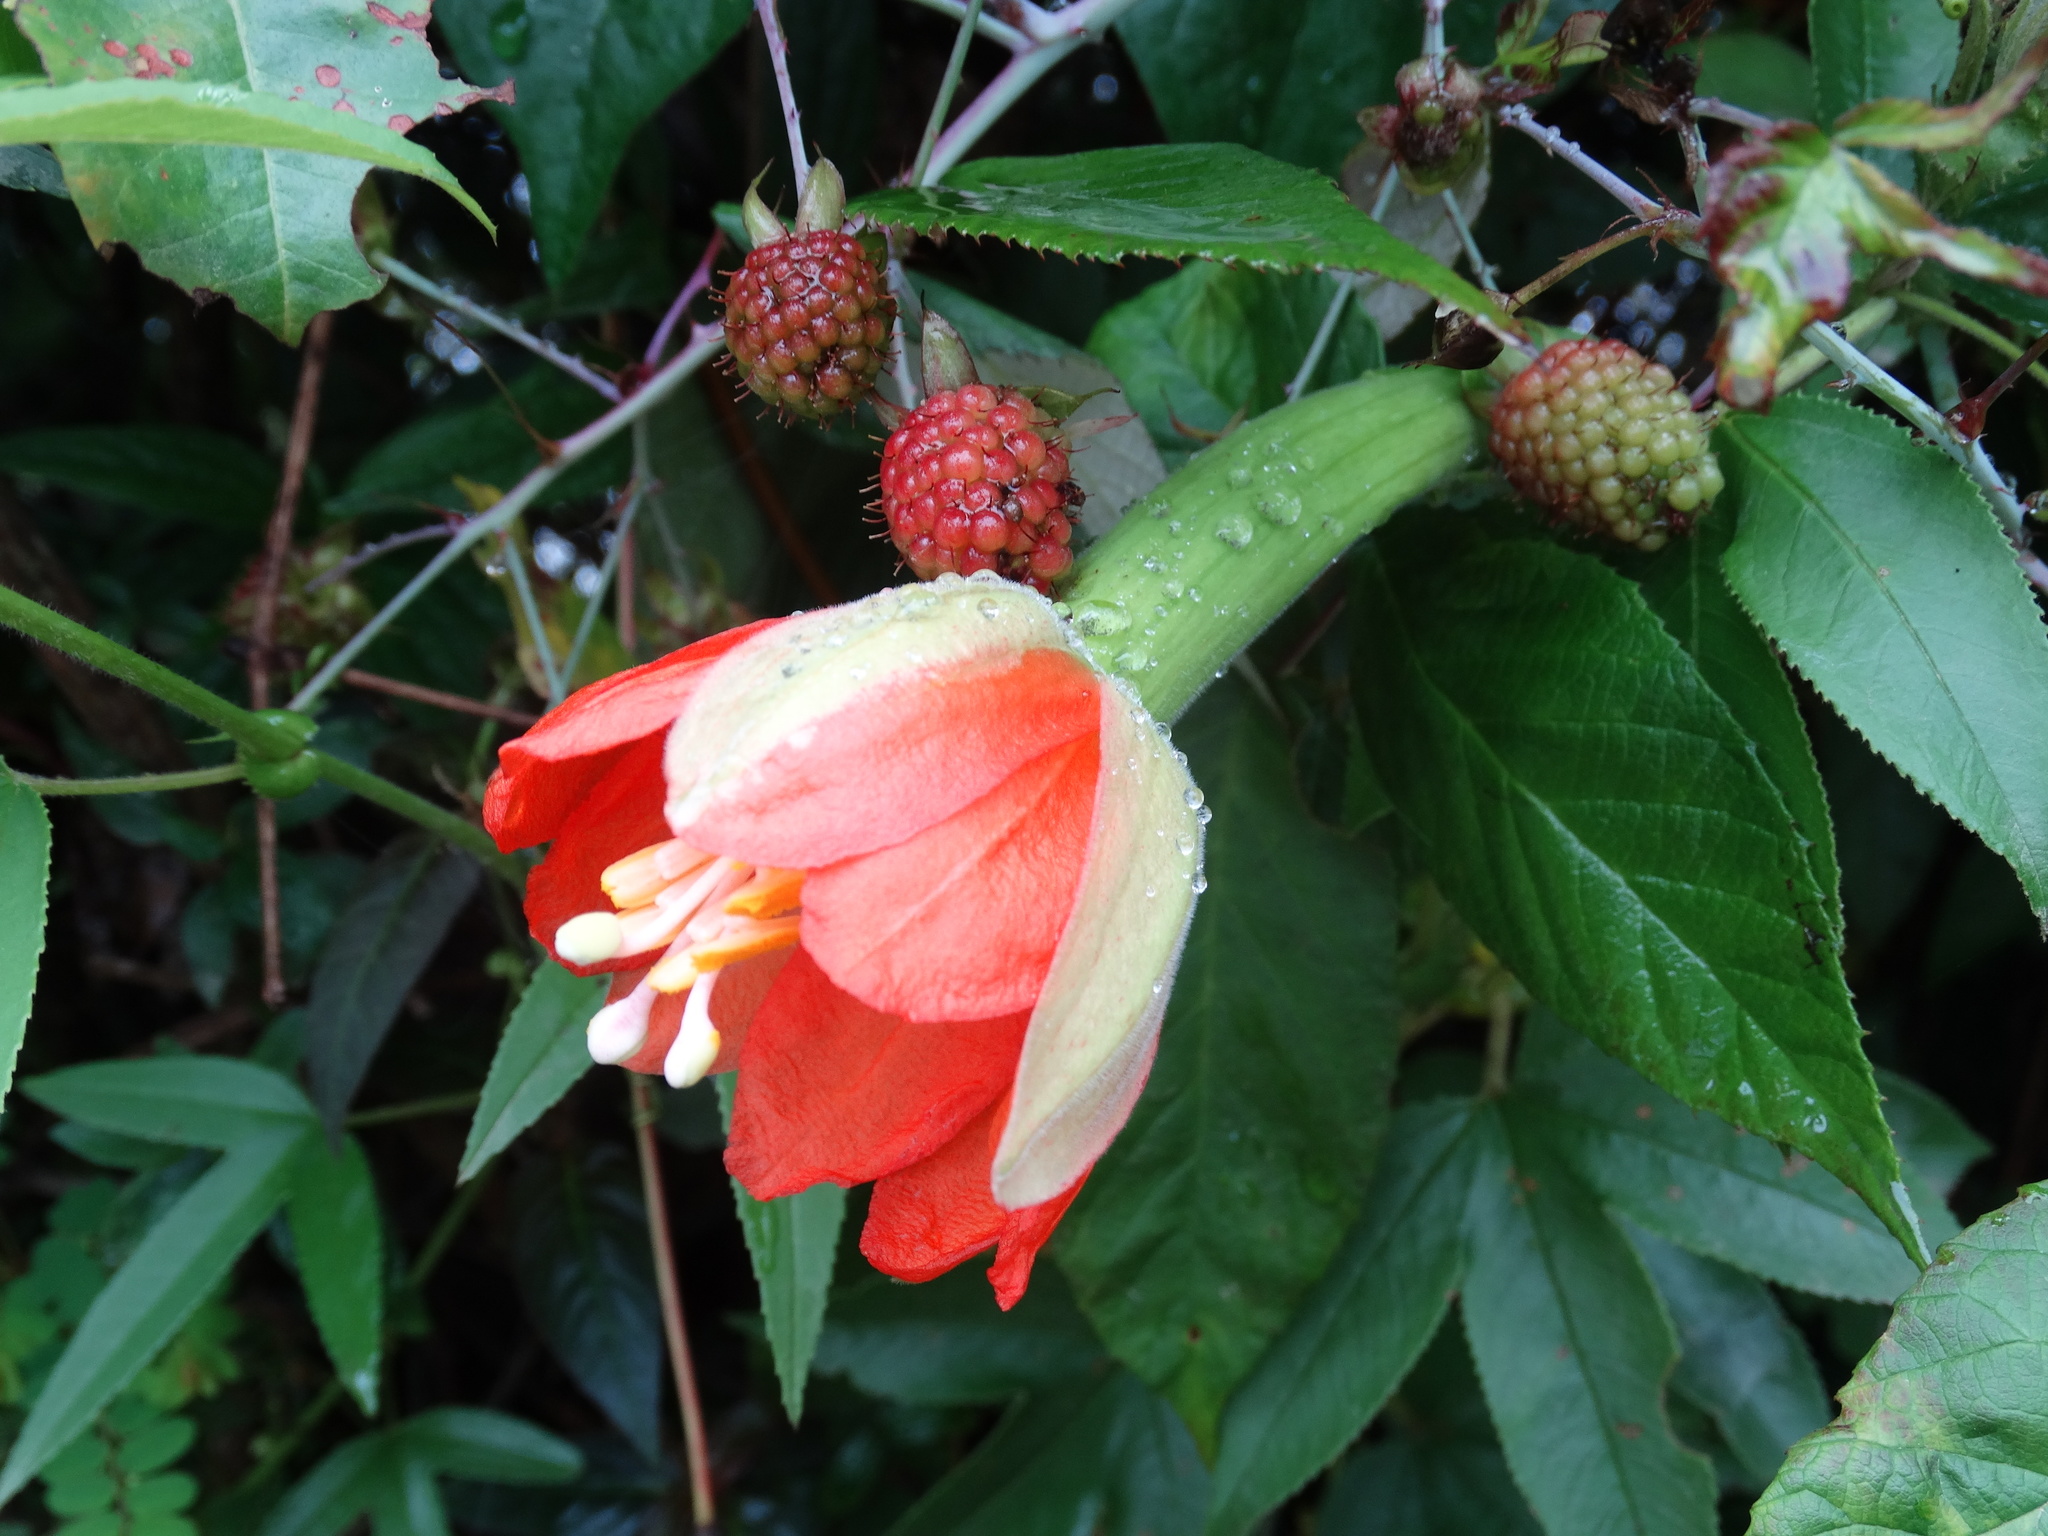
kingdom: Plantae
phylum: Tracheophyta
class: Magnoliopsida
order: Malpighiales
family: Passifloraceae
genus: Passiflora
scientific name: Passiflora mixta
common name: Passion flower
